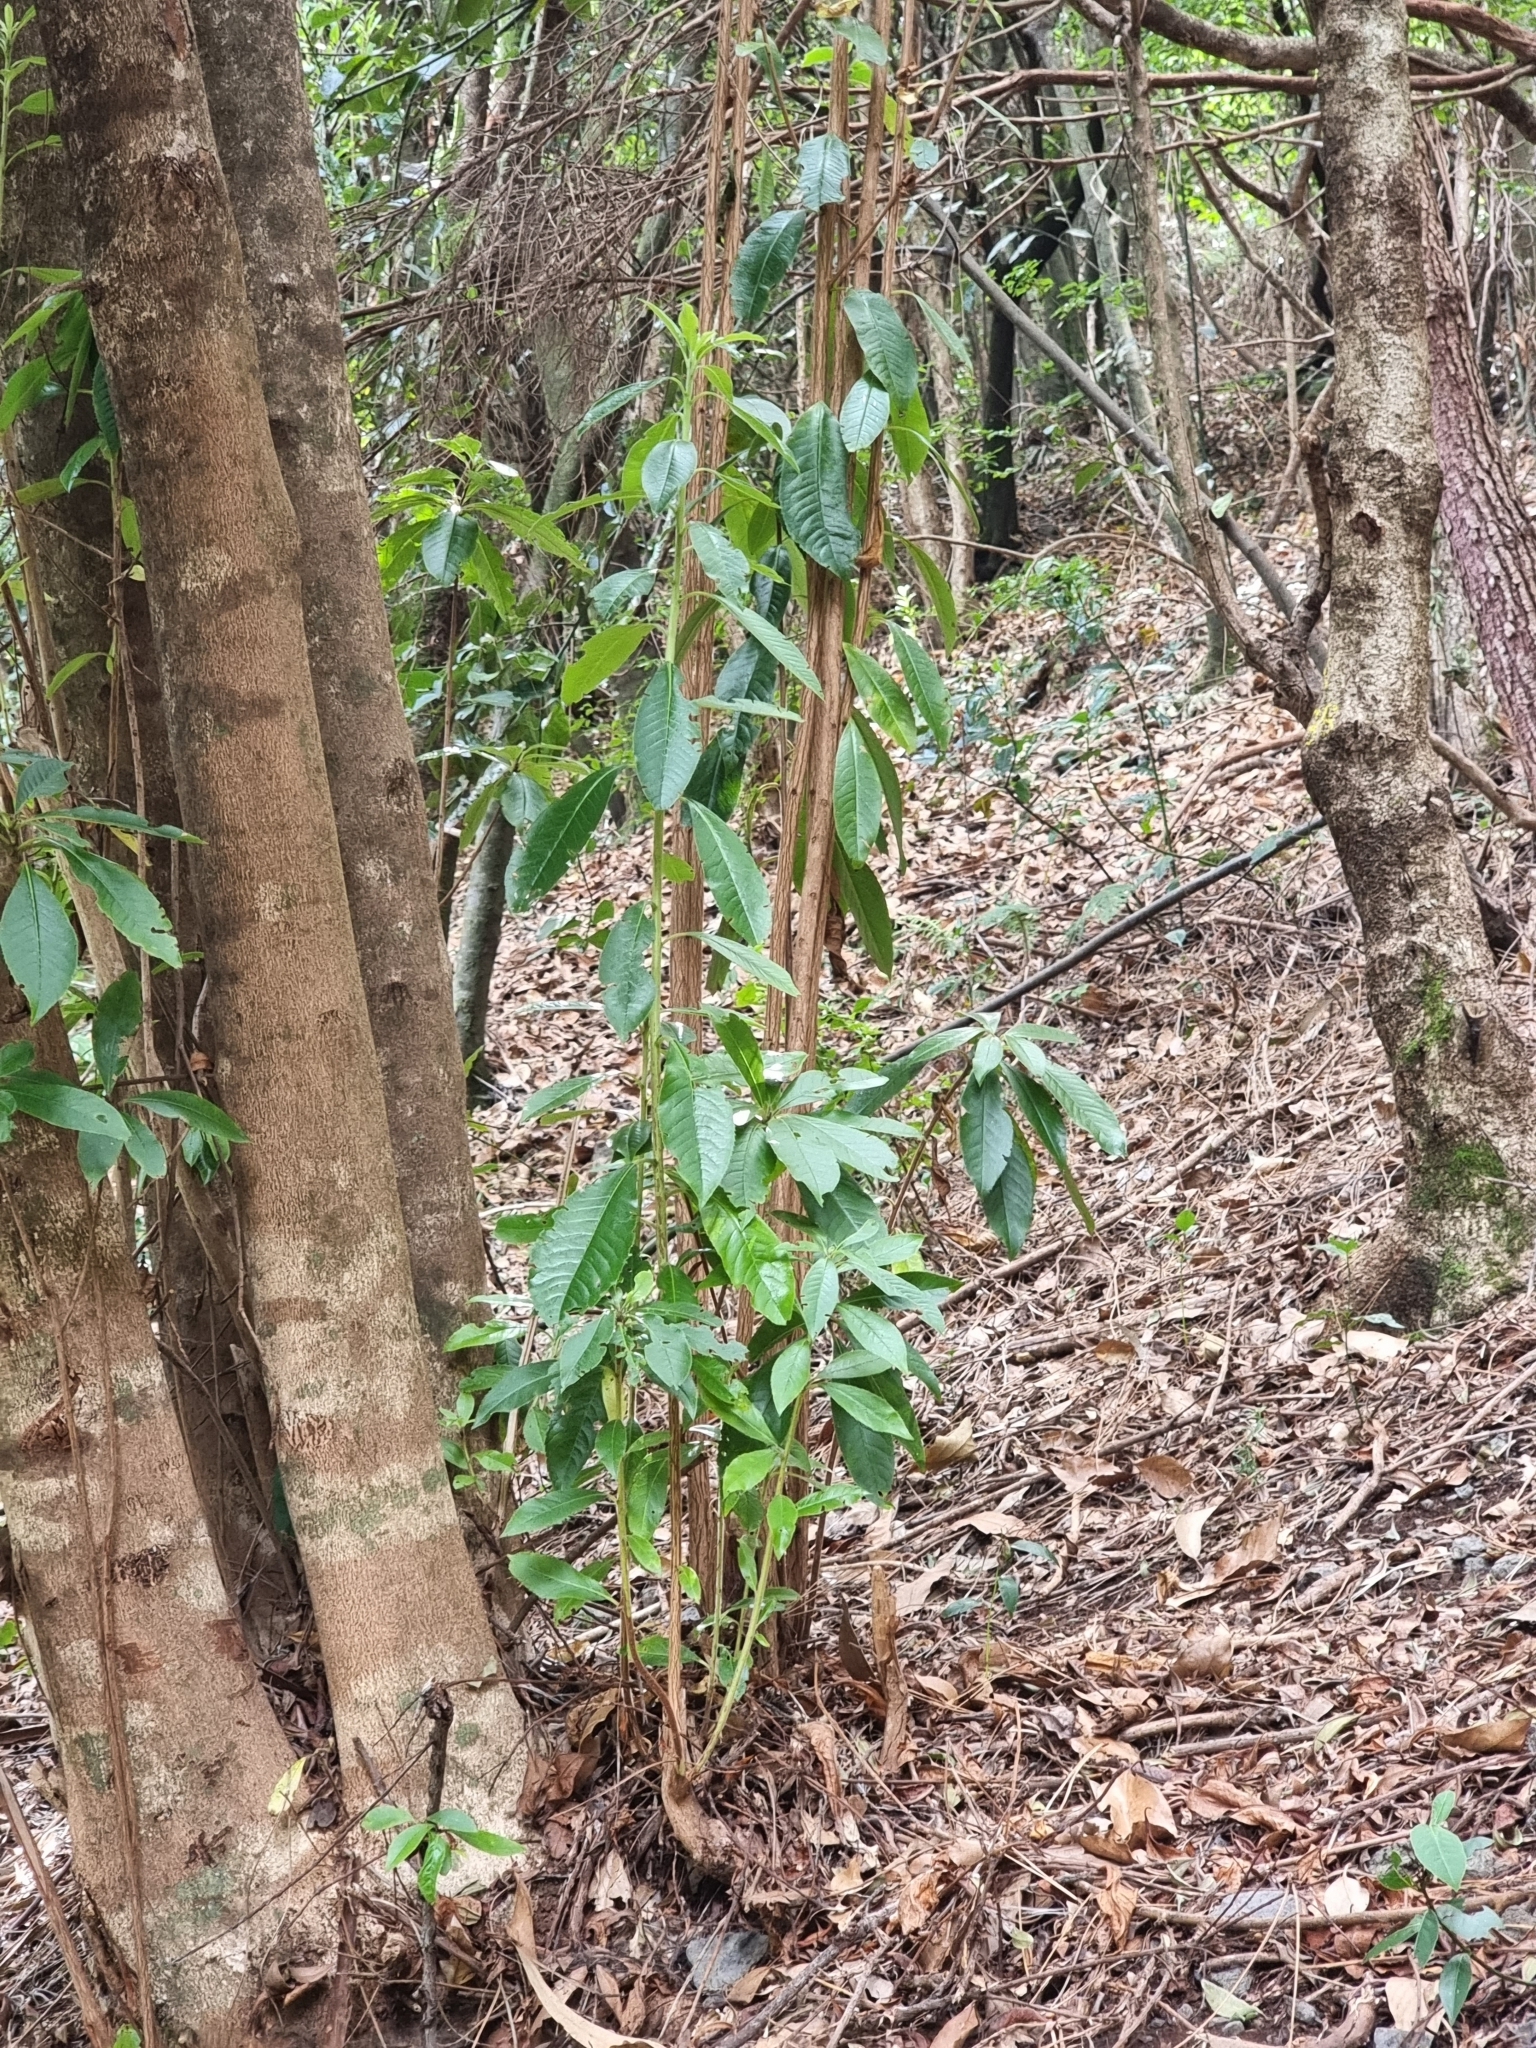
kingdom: Plantae
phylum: Tracheophyta
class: Magnoliopsida
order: Ericales
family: Clethraceae
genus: Clethra
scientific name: Clethra arborea
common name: Lily-of-the-valley-tree
